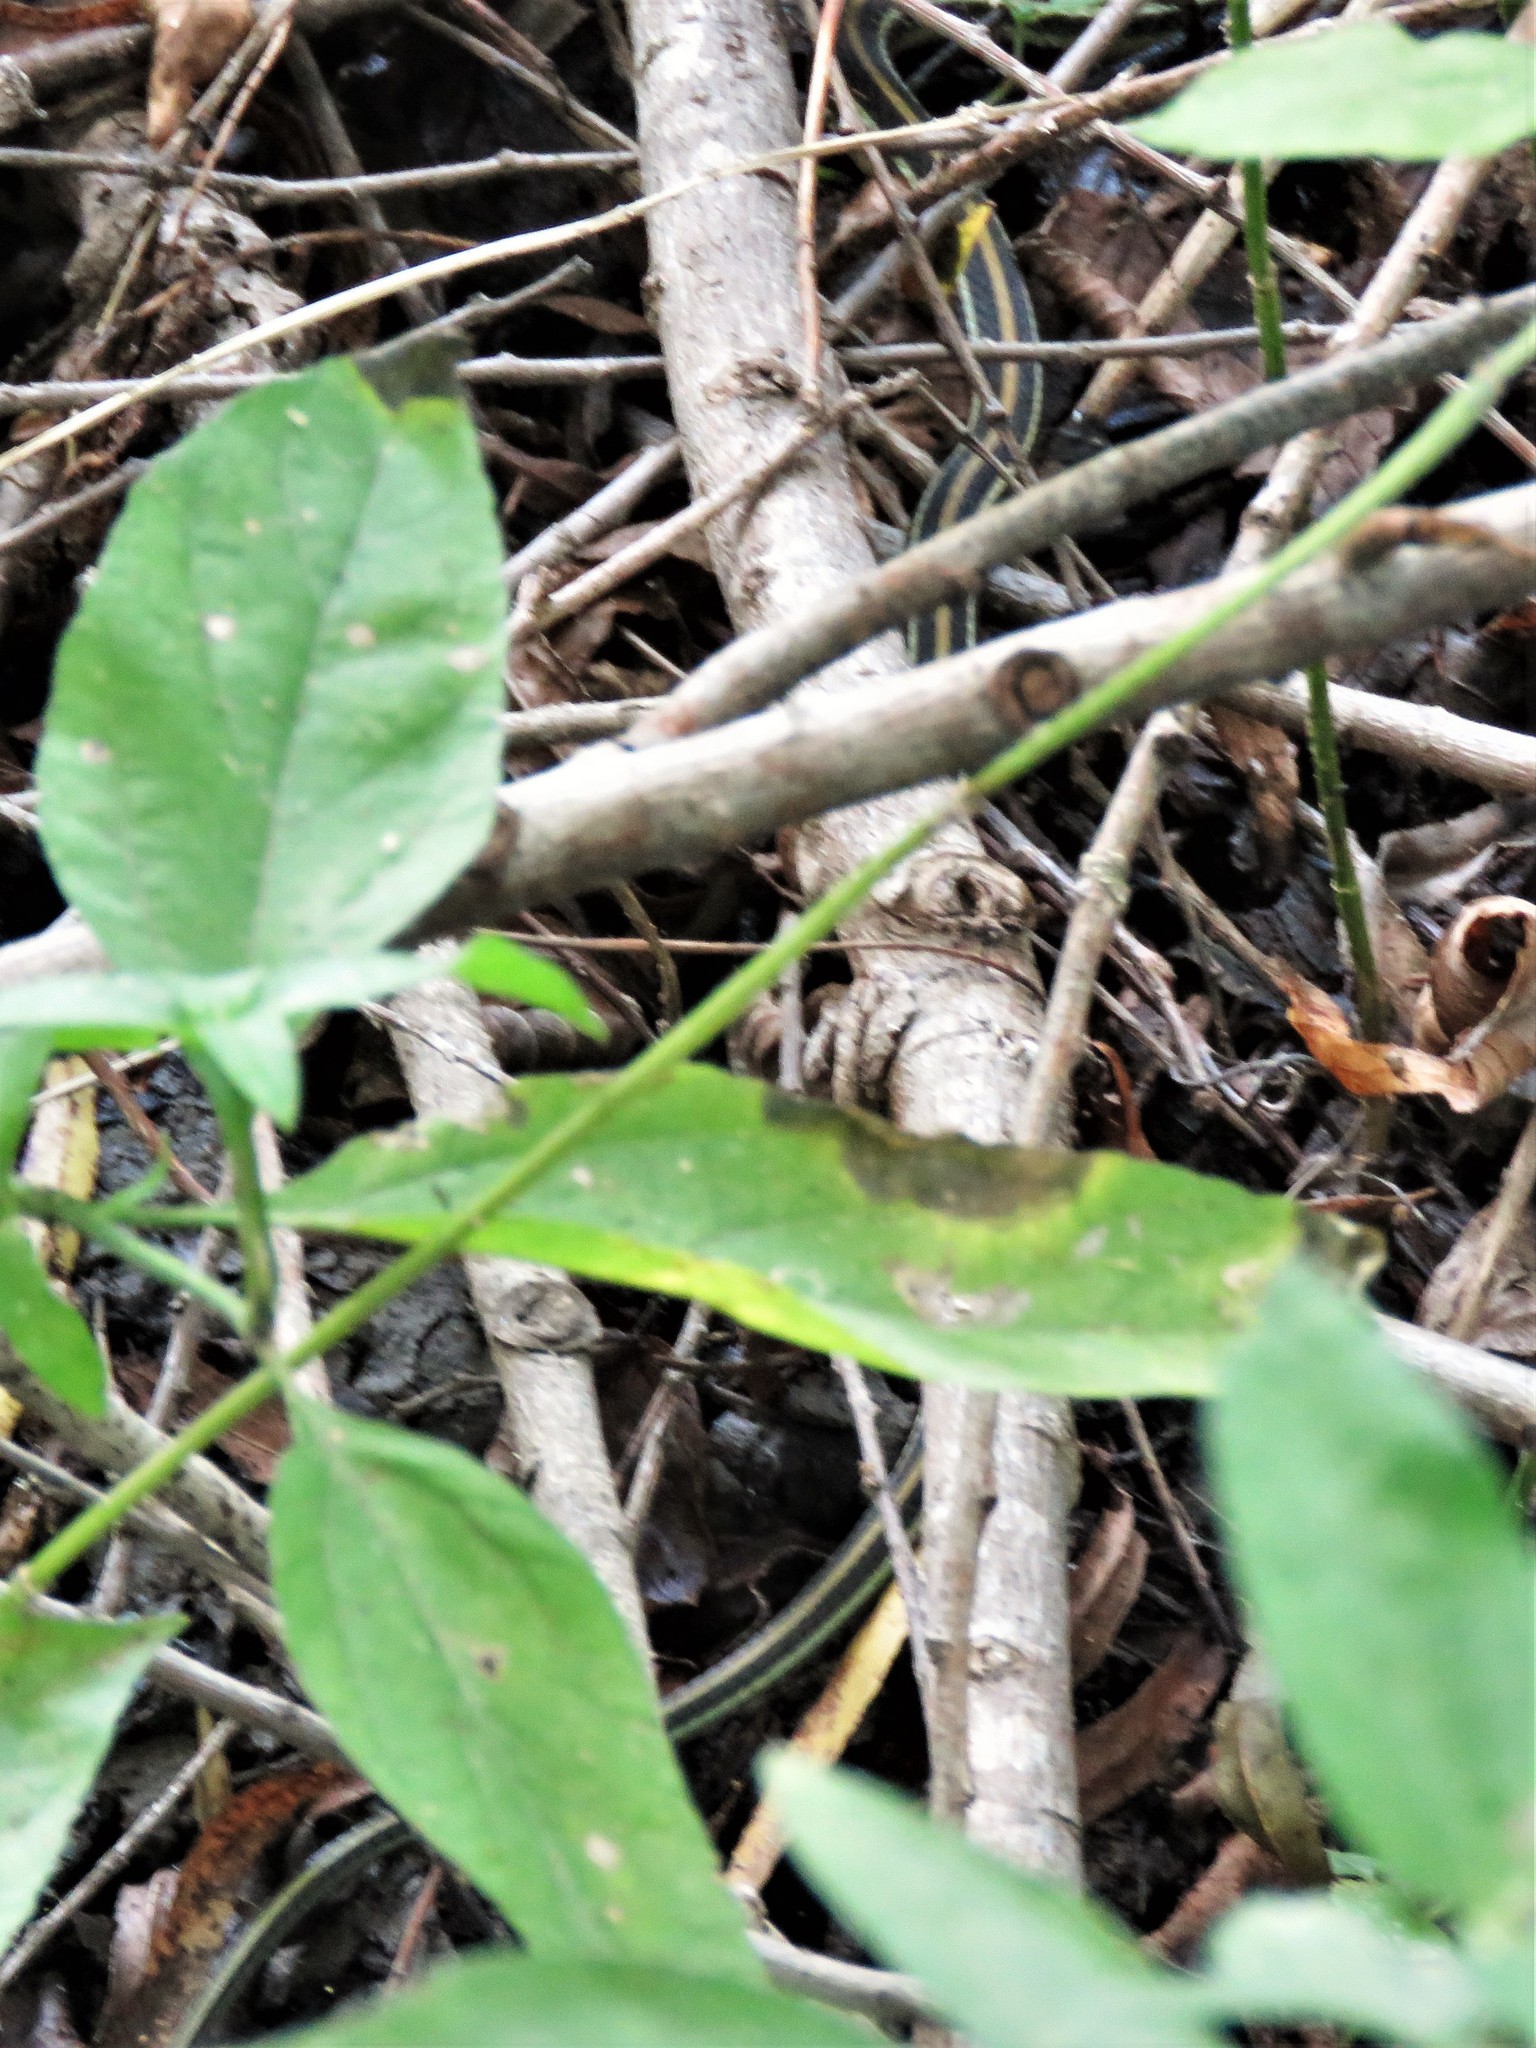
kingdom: Animalia
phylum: Chordata
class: Squamata
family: Colubridae
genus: Thamnophis
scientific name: Thamnophis proximus
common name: Western ribbon snake
